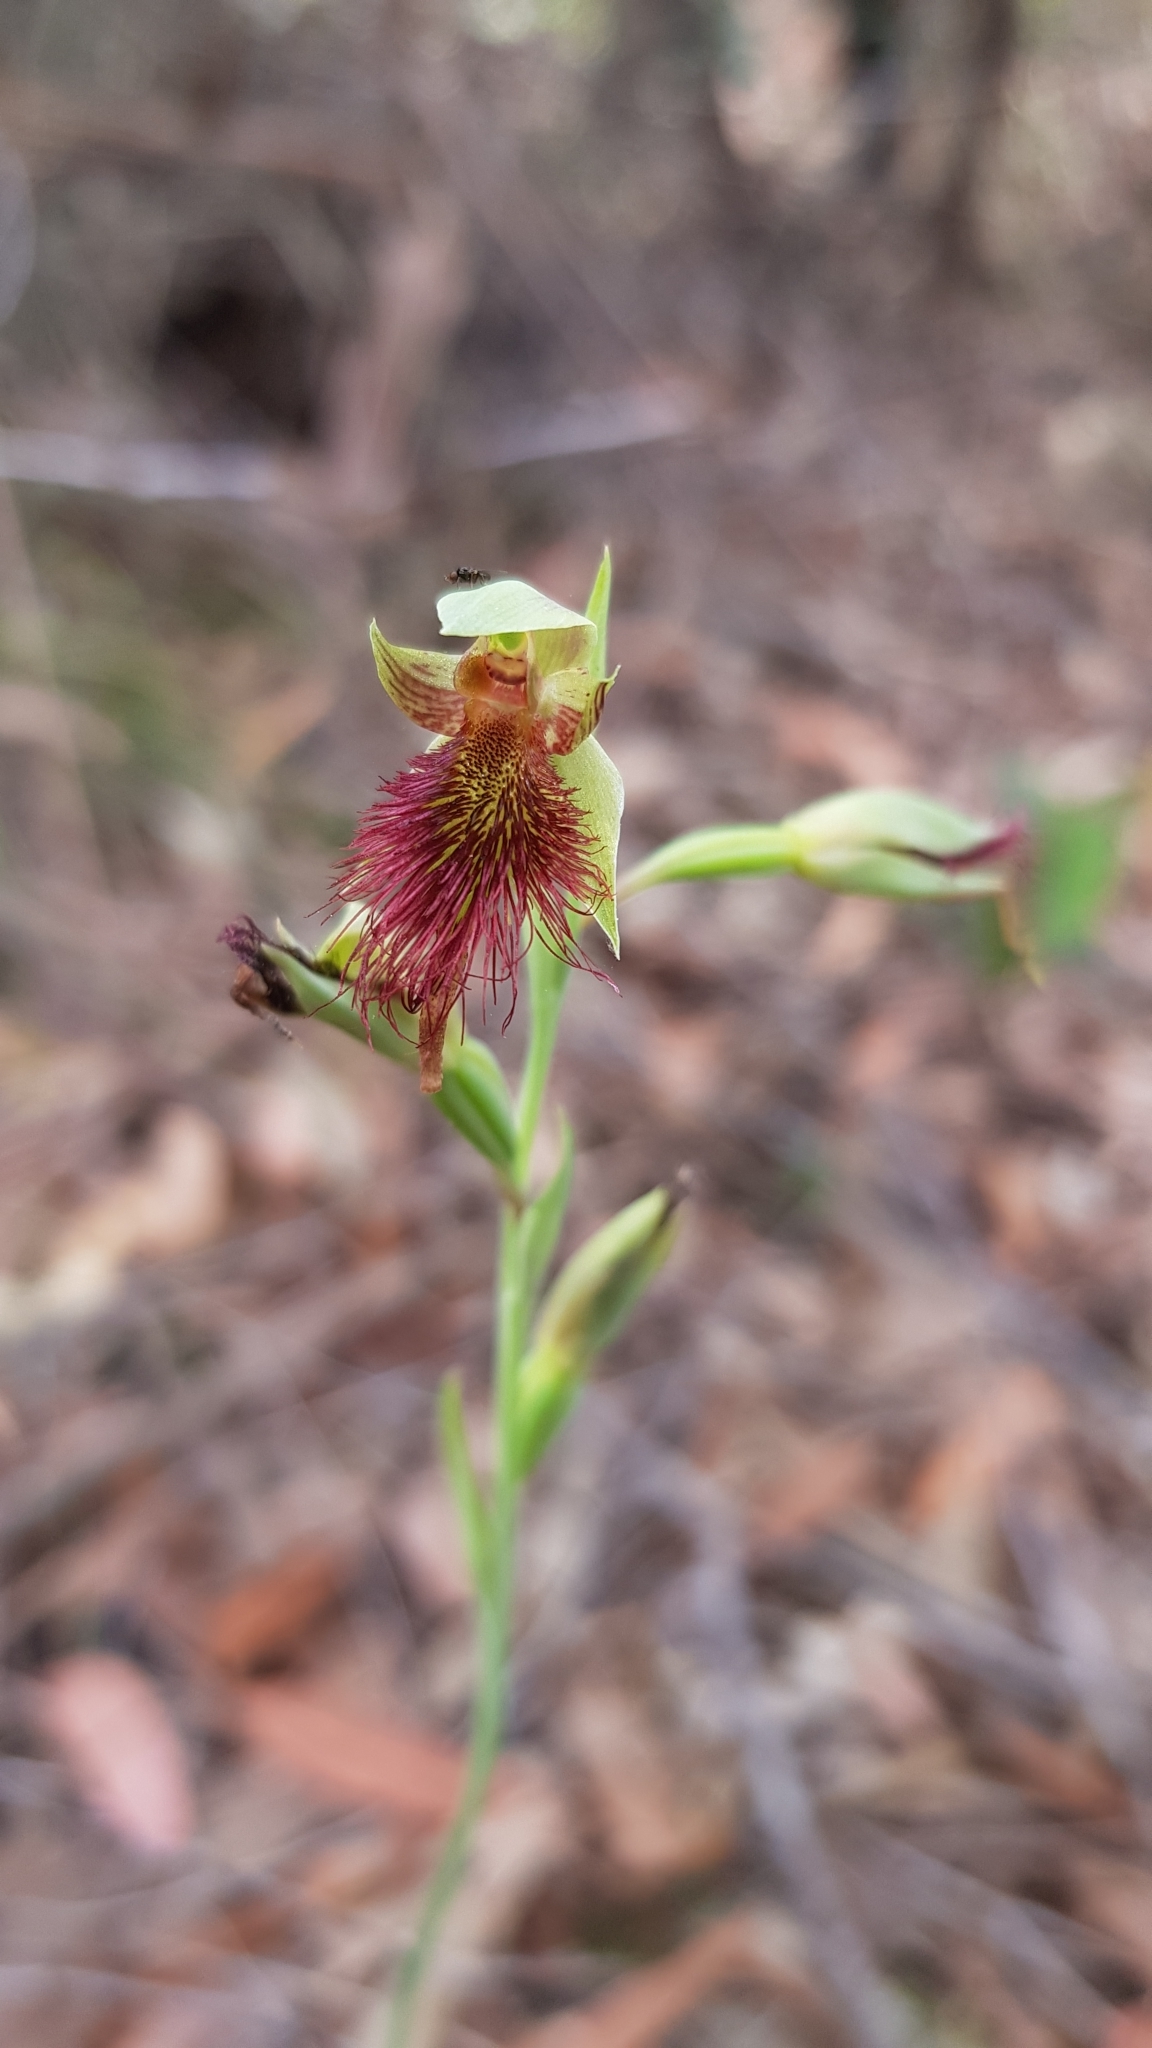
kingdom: Plantae
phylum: Tracheophyta
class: Liliopsida
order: Asparagales
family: Orchidaceae
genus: Calochilus
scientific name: Calochilus paludosus
